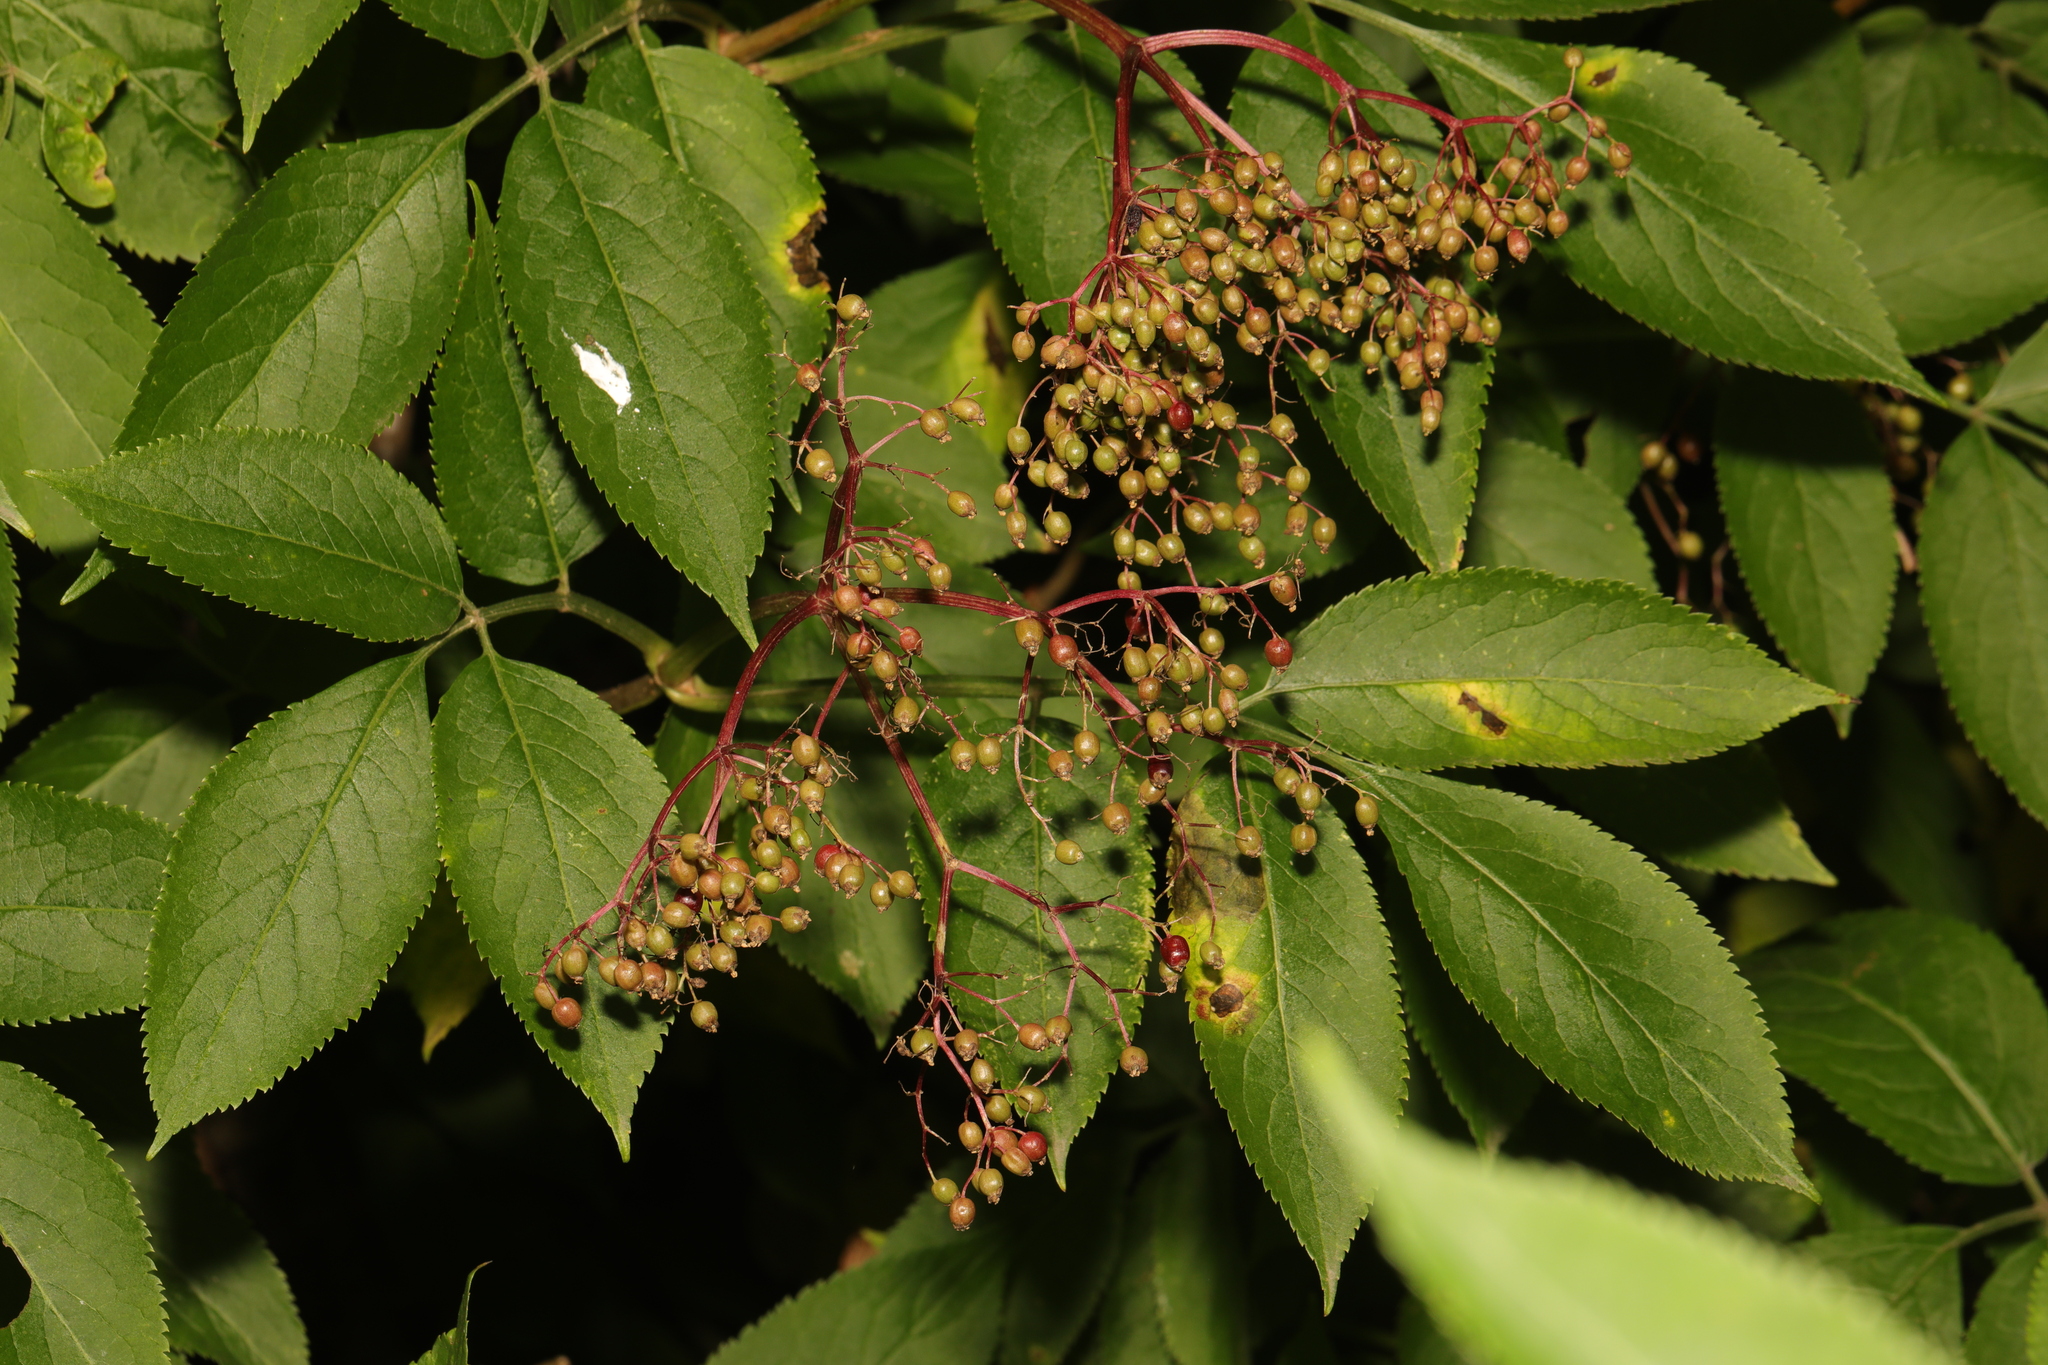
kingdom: Plantae
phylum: Tracheophyta
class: Magnoliopsida
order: Dipsacales
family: Viburnaceae
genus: Sambucus
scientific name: Sambucus nigra
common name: Elder
